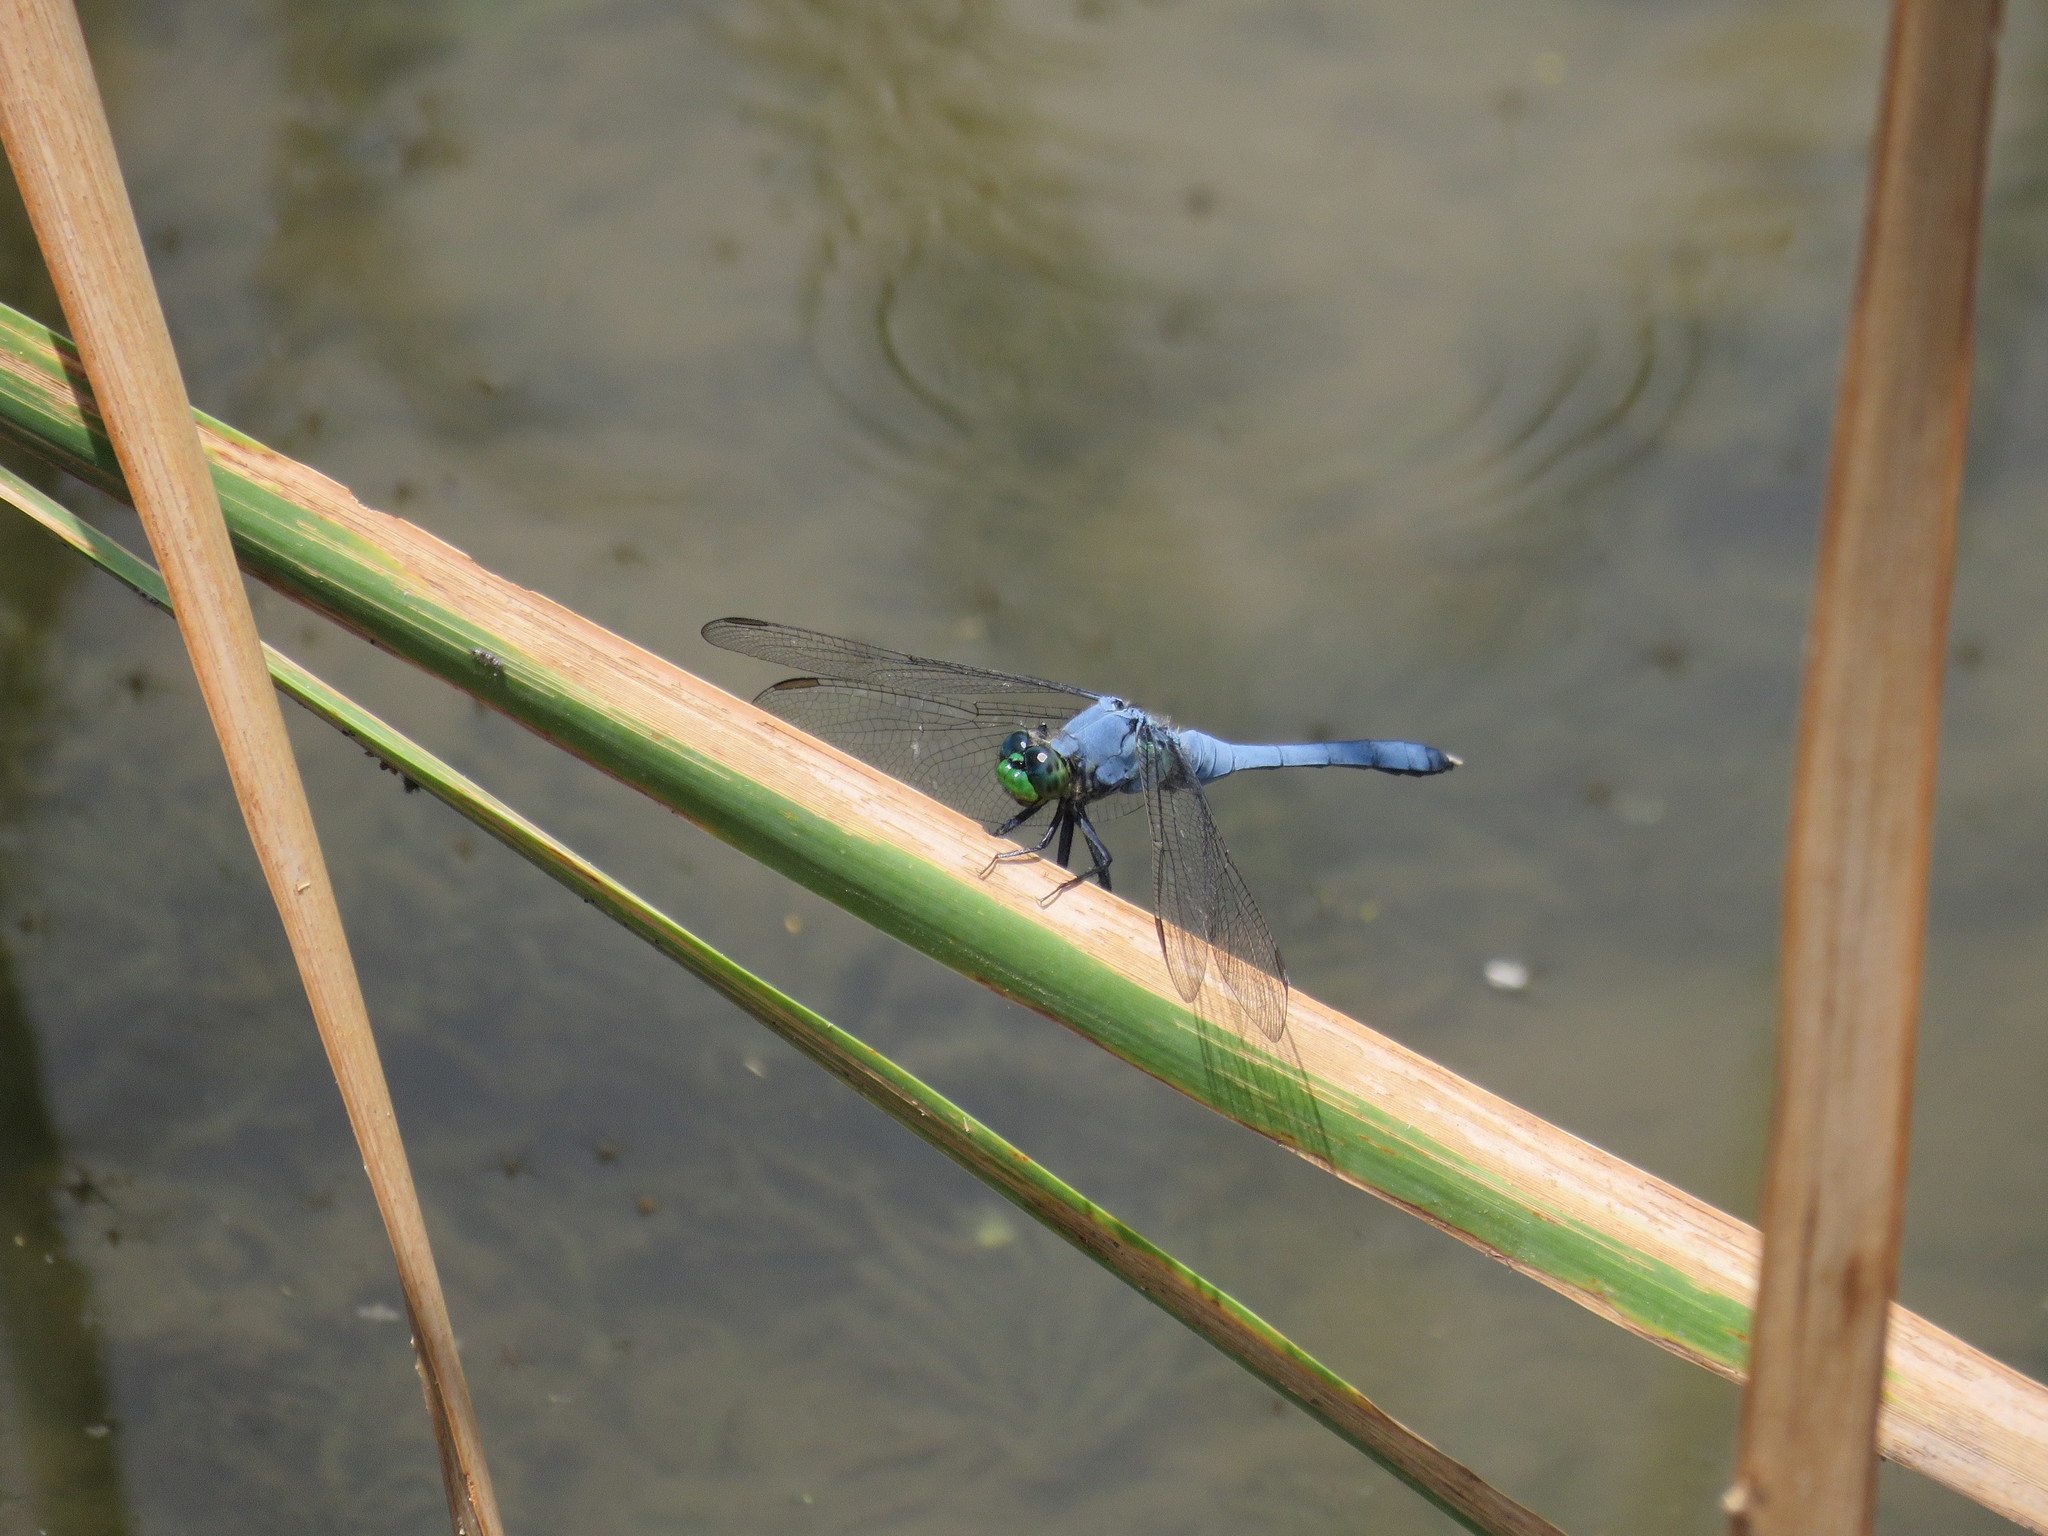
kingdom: Animalia
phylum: Arthropoda
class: Insecta
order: Odonata
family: Libellulidae
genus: Erythemis
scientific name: Erythemis simplicicollis
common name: Eastern pondhawk
